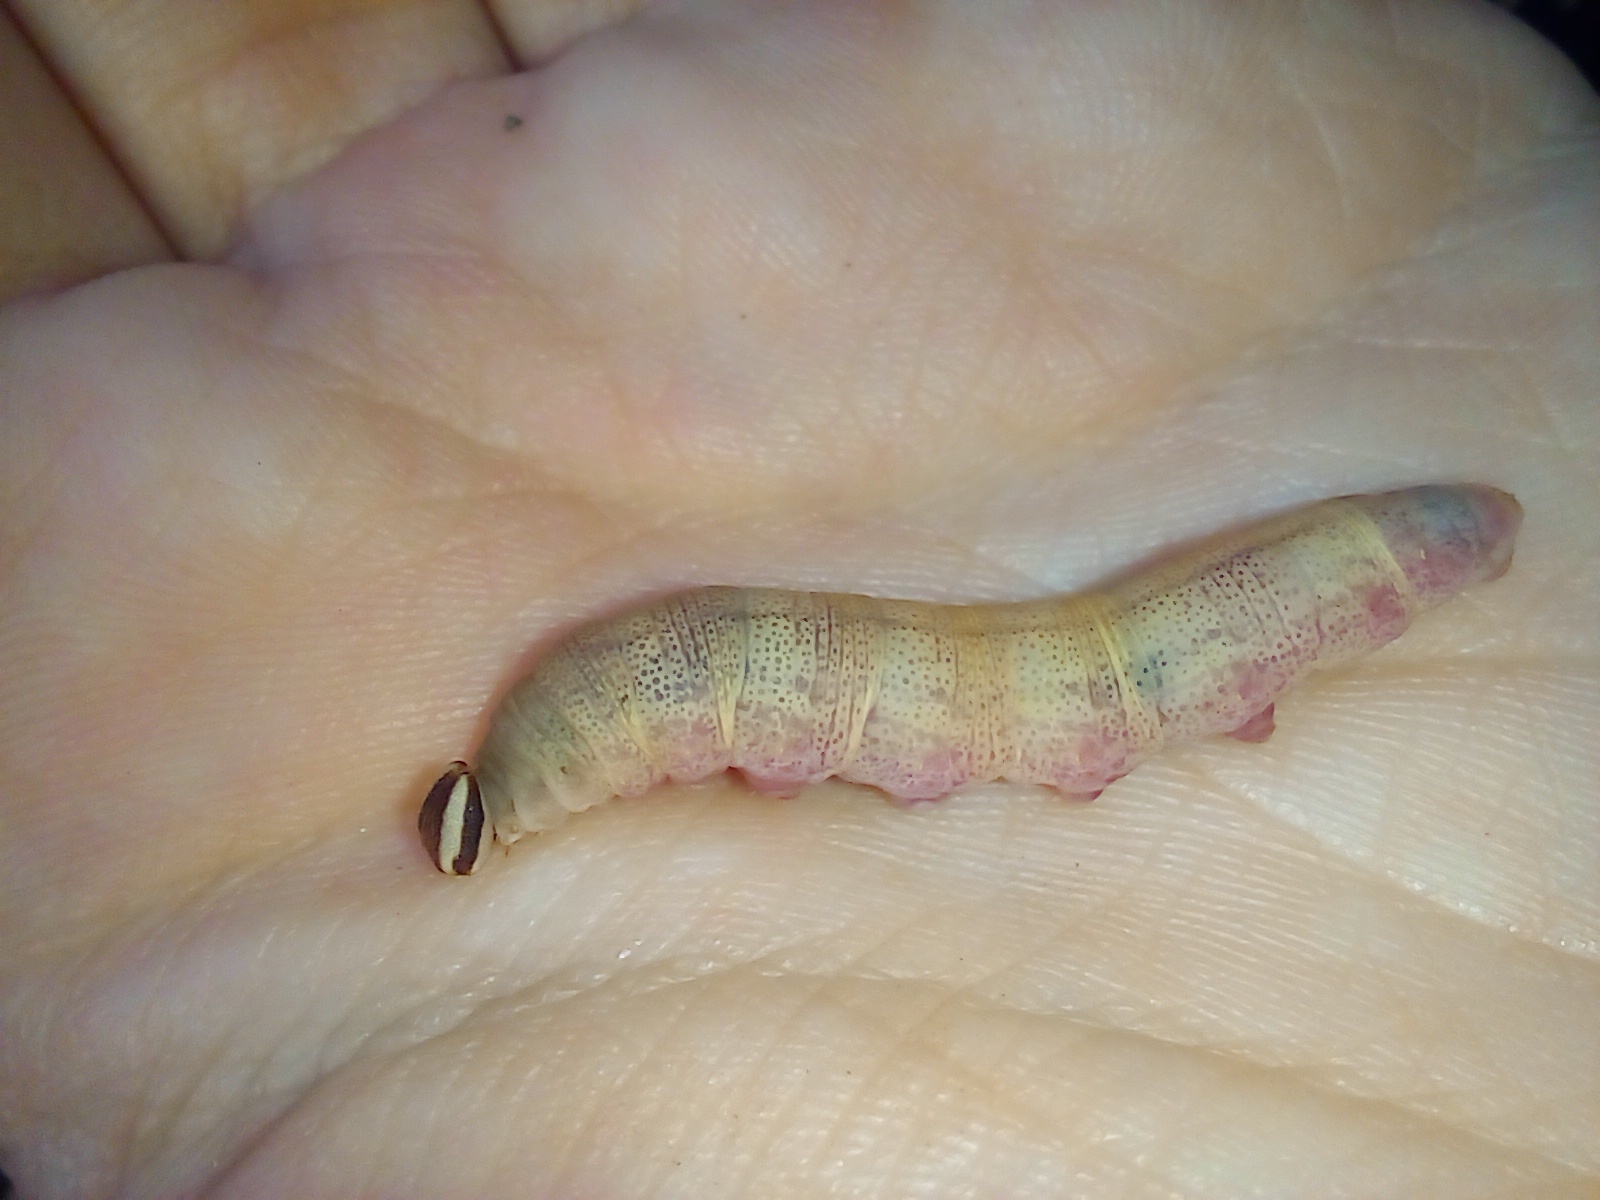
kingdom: Animalia
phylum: Arthropoda
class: Insecta
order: Lepidoptera
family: Hesperiidae
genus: Quinta
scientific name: Quinta cannae
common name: Canna skipper
